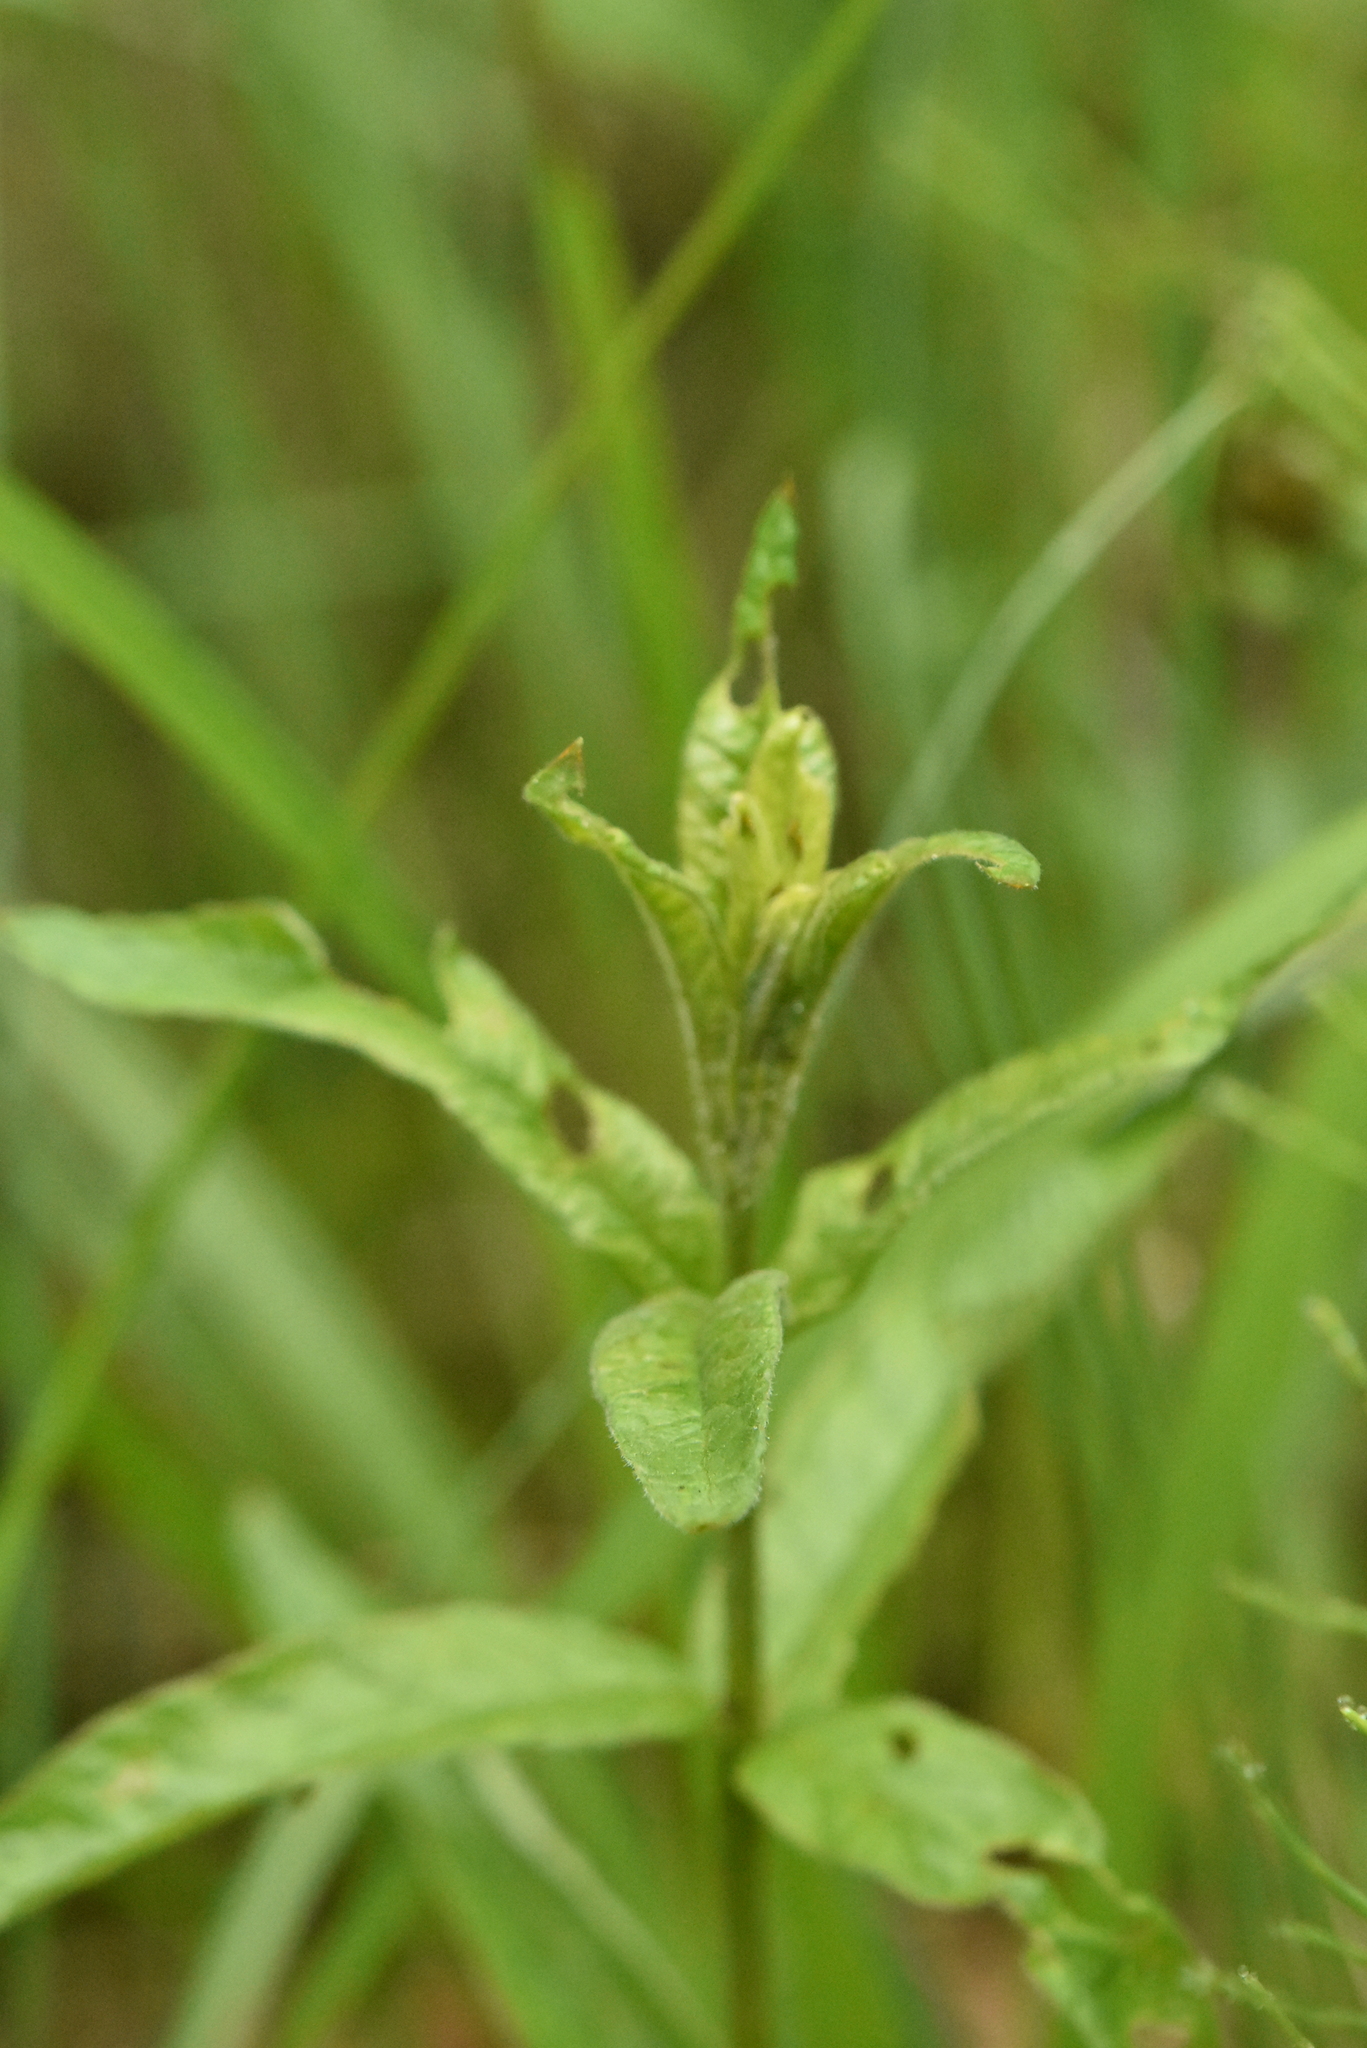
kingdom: Plantae
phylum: Tracheophyta
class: Magnoliopsida
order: Ericales
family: Primulaceae
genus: Lysimachia
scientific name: Lysimachia vulgaris
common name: Yellow loosestrife
